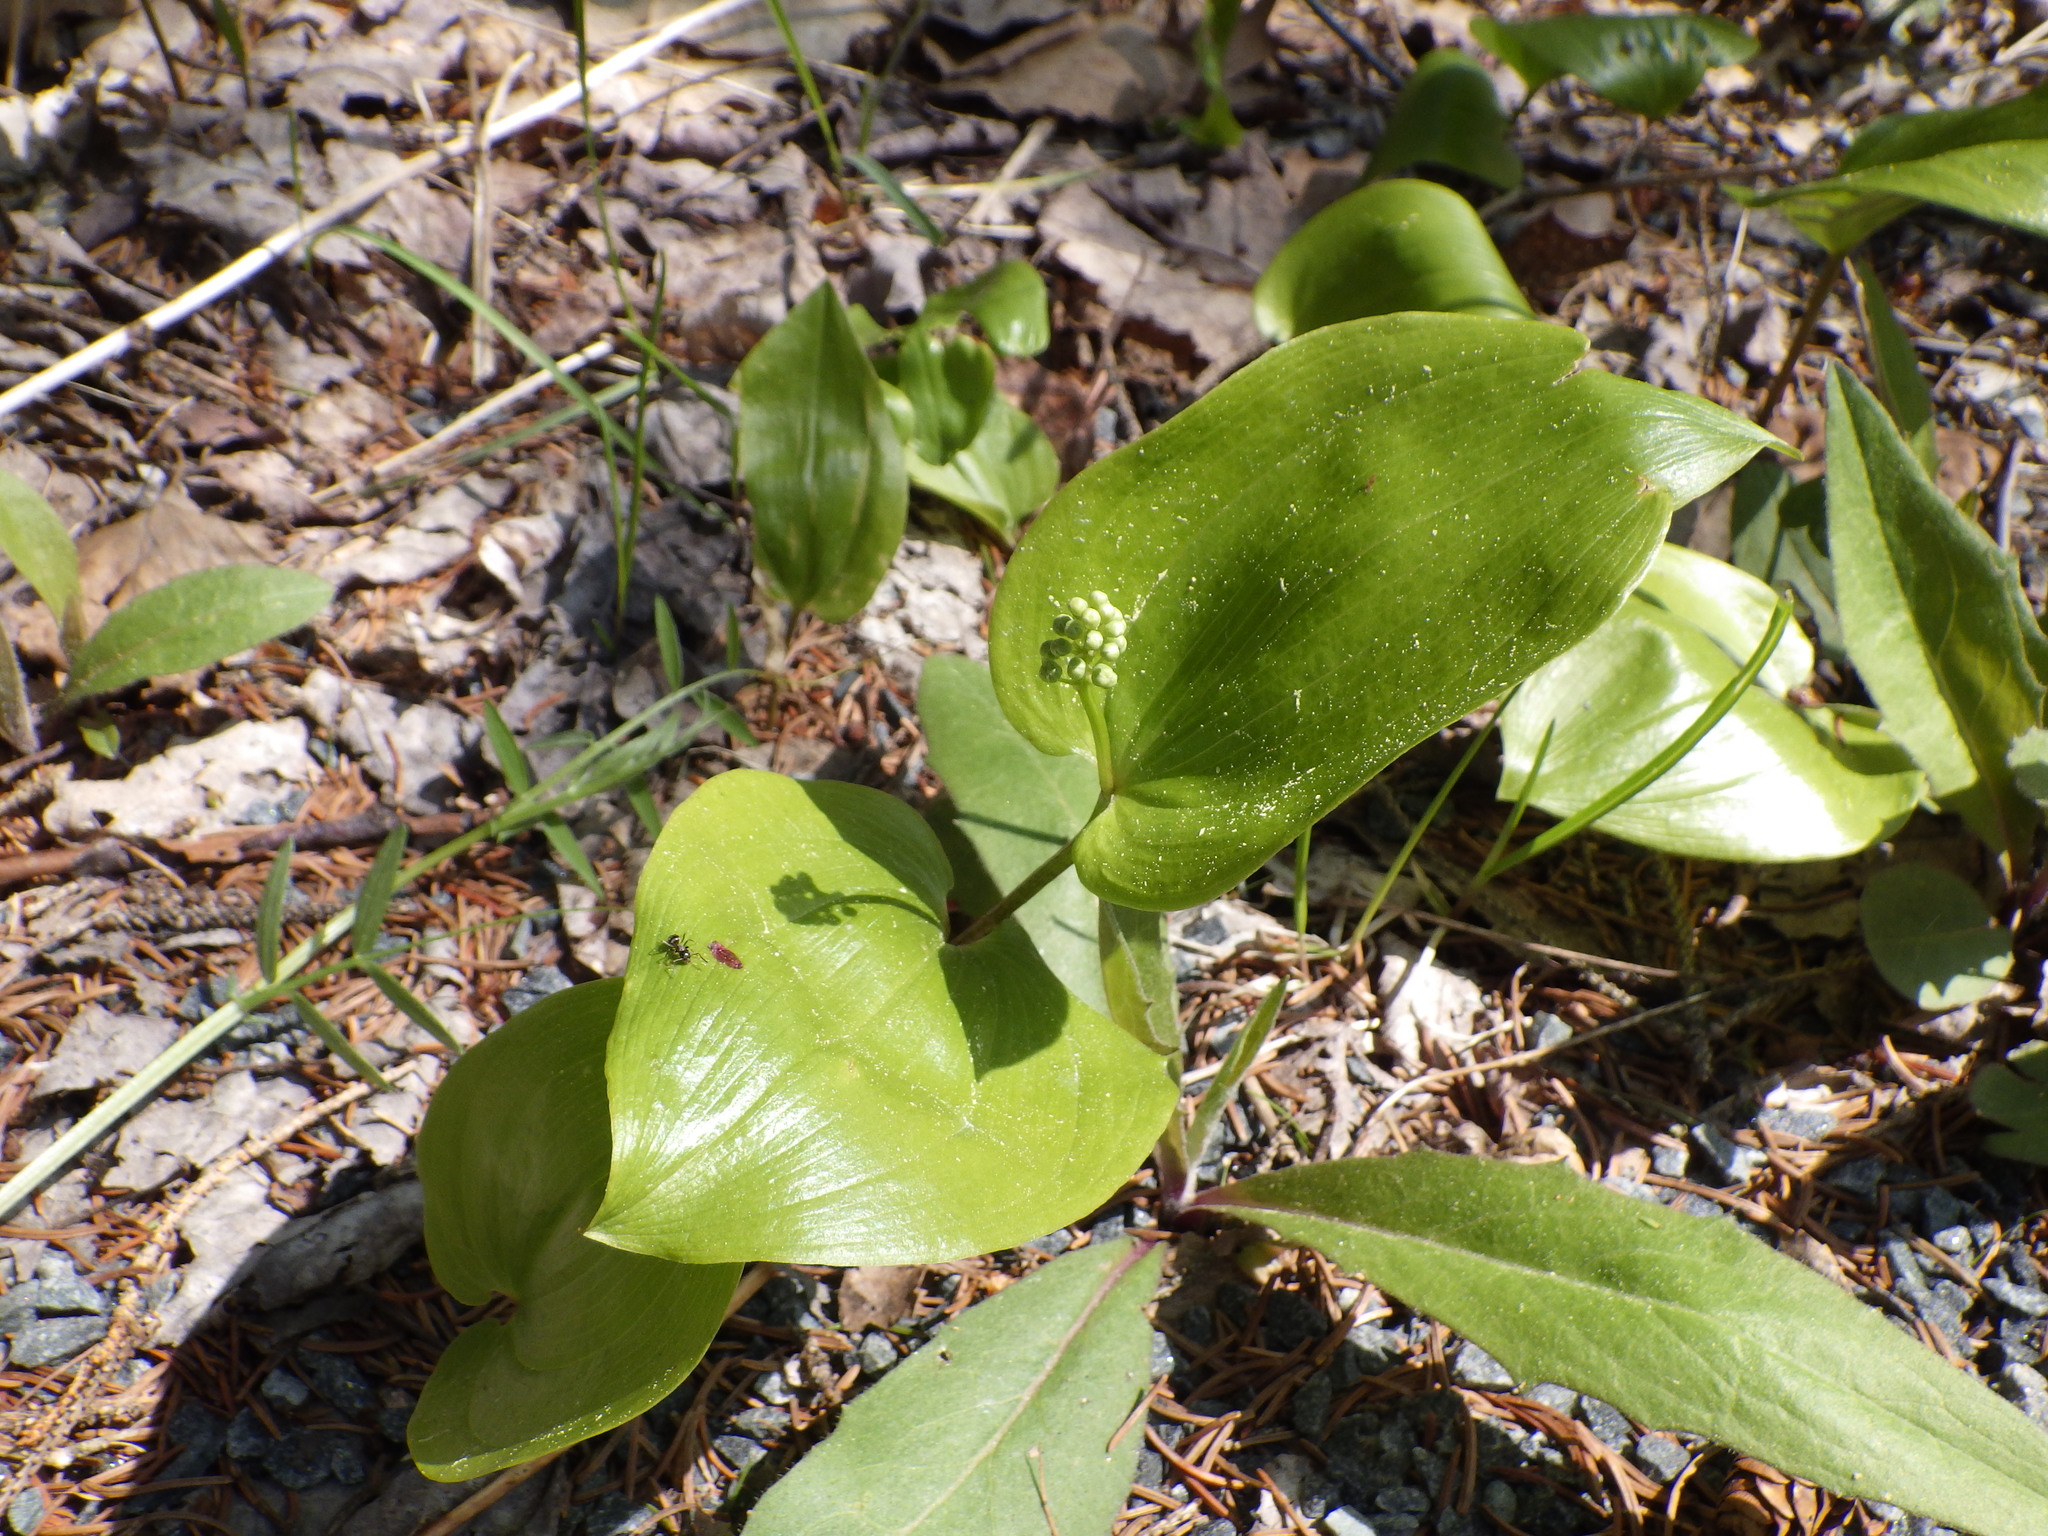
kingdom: Plantae
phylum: Tracheophyta
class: Liliopsida
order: Asparagales
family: Asparagaceae
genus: Maianthemum
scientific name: Maianthemum canadense
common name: False lily-of-the-valley
